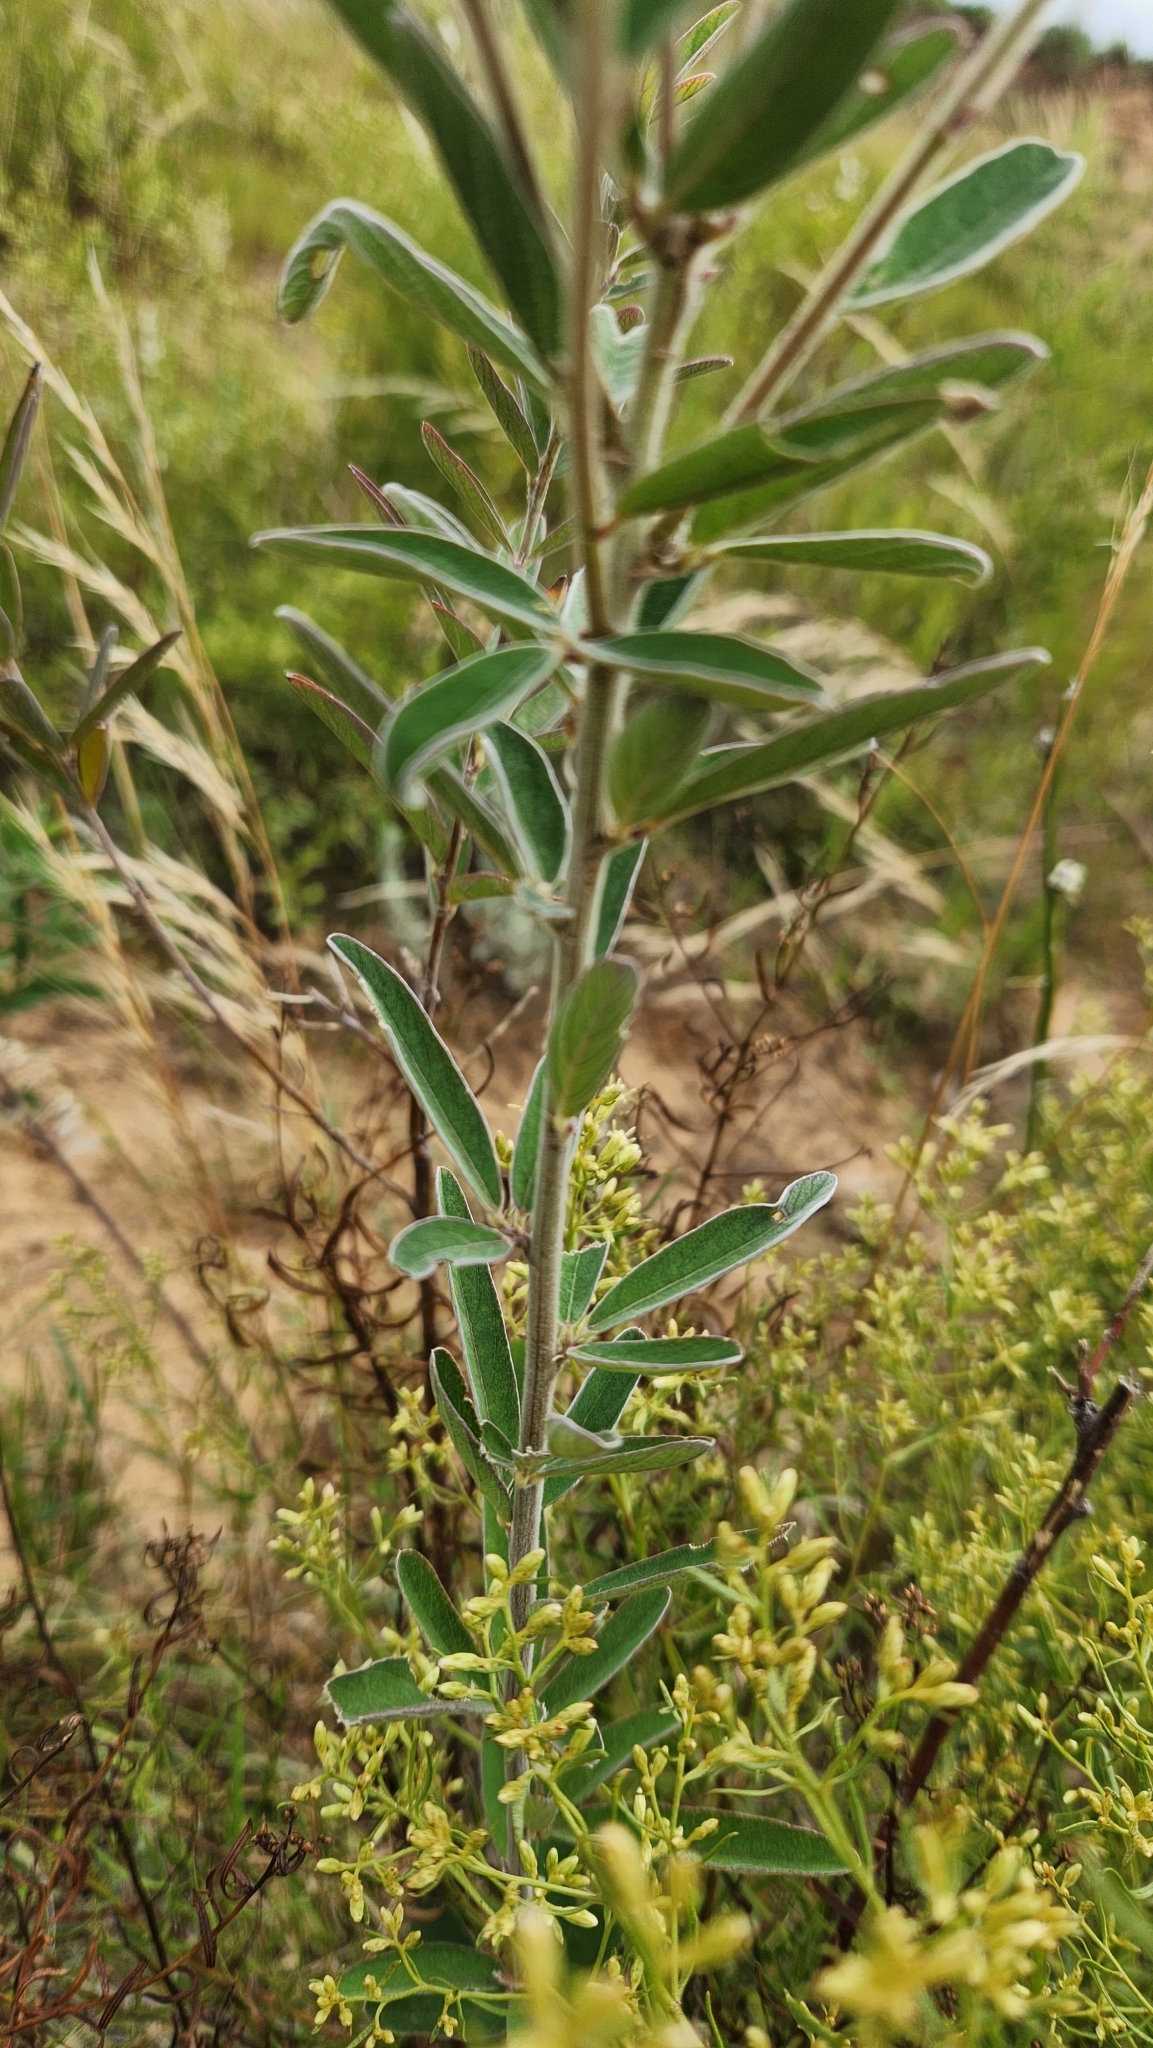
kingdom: Plantae
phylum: Tracheophyta
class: Magnoliopsida
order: Fabales
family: Fabaceae
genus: Desmodium
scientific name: Desmodium cuneatum
